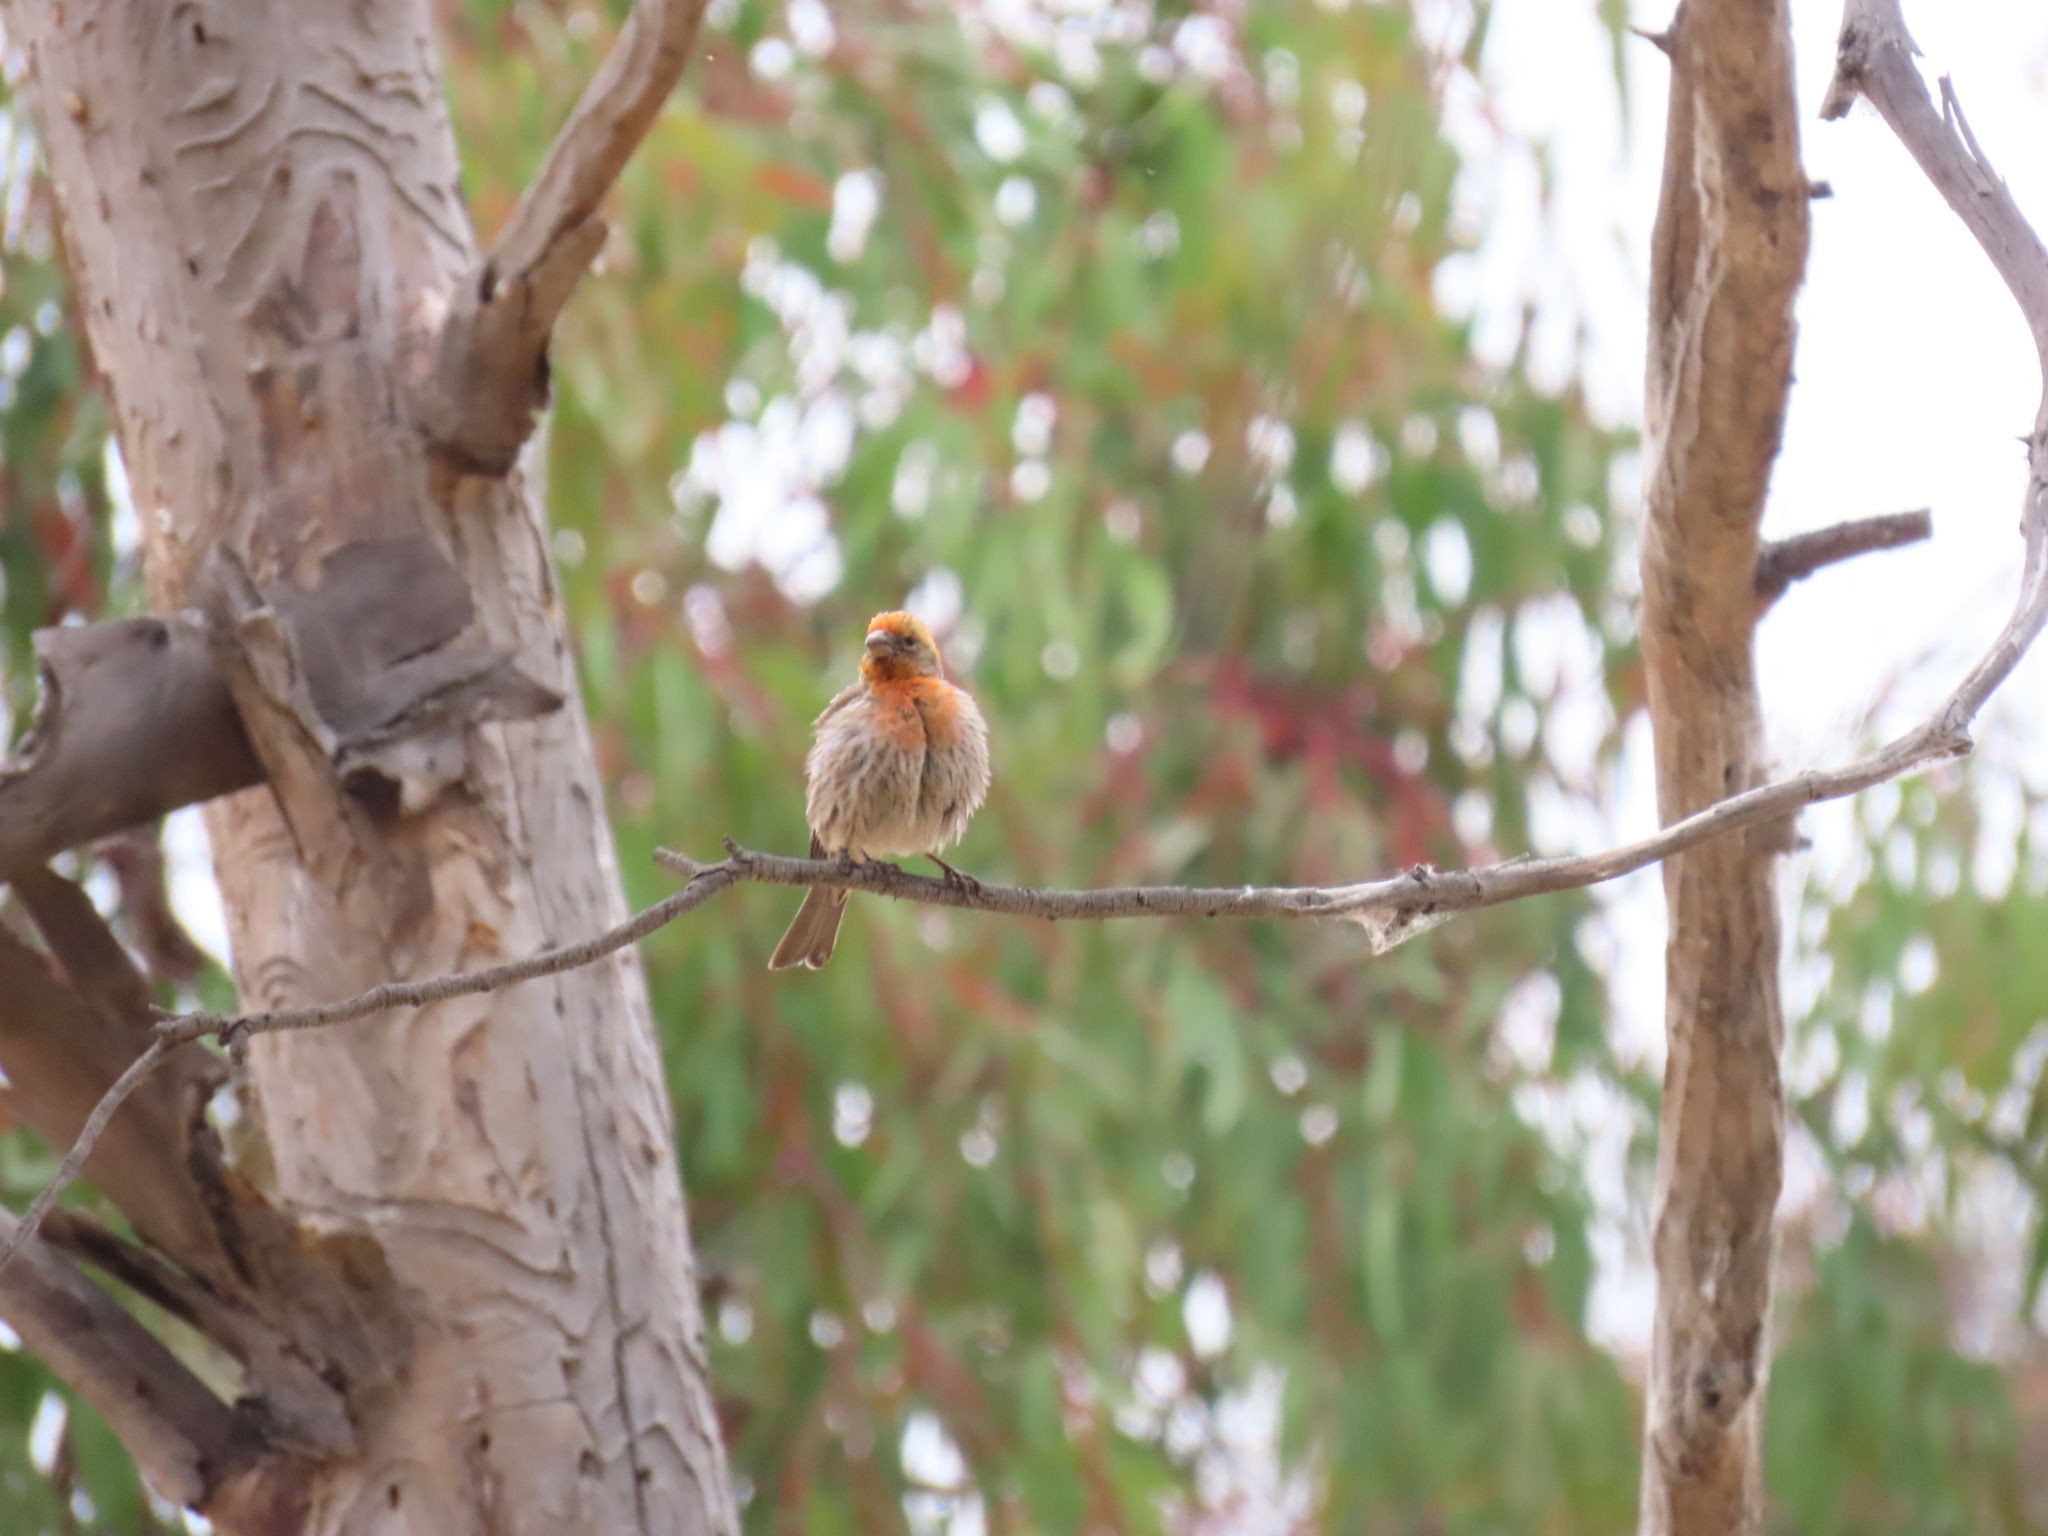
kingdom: Animalia
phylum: Chordata
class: Aves
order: Passeriformes
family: Fringillidae
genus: Haemorhous
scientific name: Haemorhous mexicanus
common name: House finch
